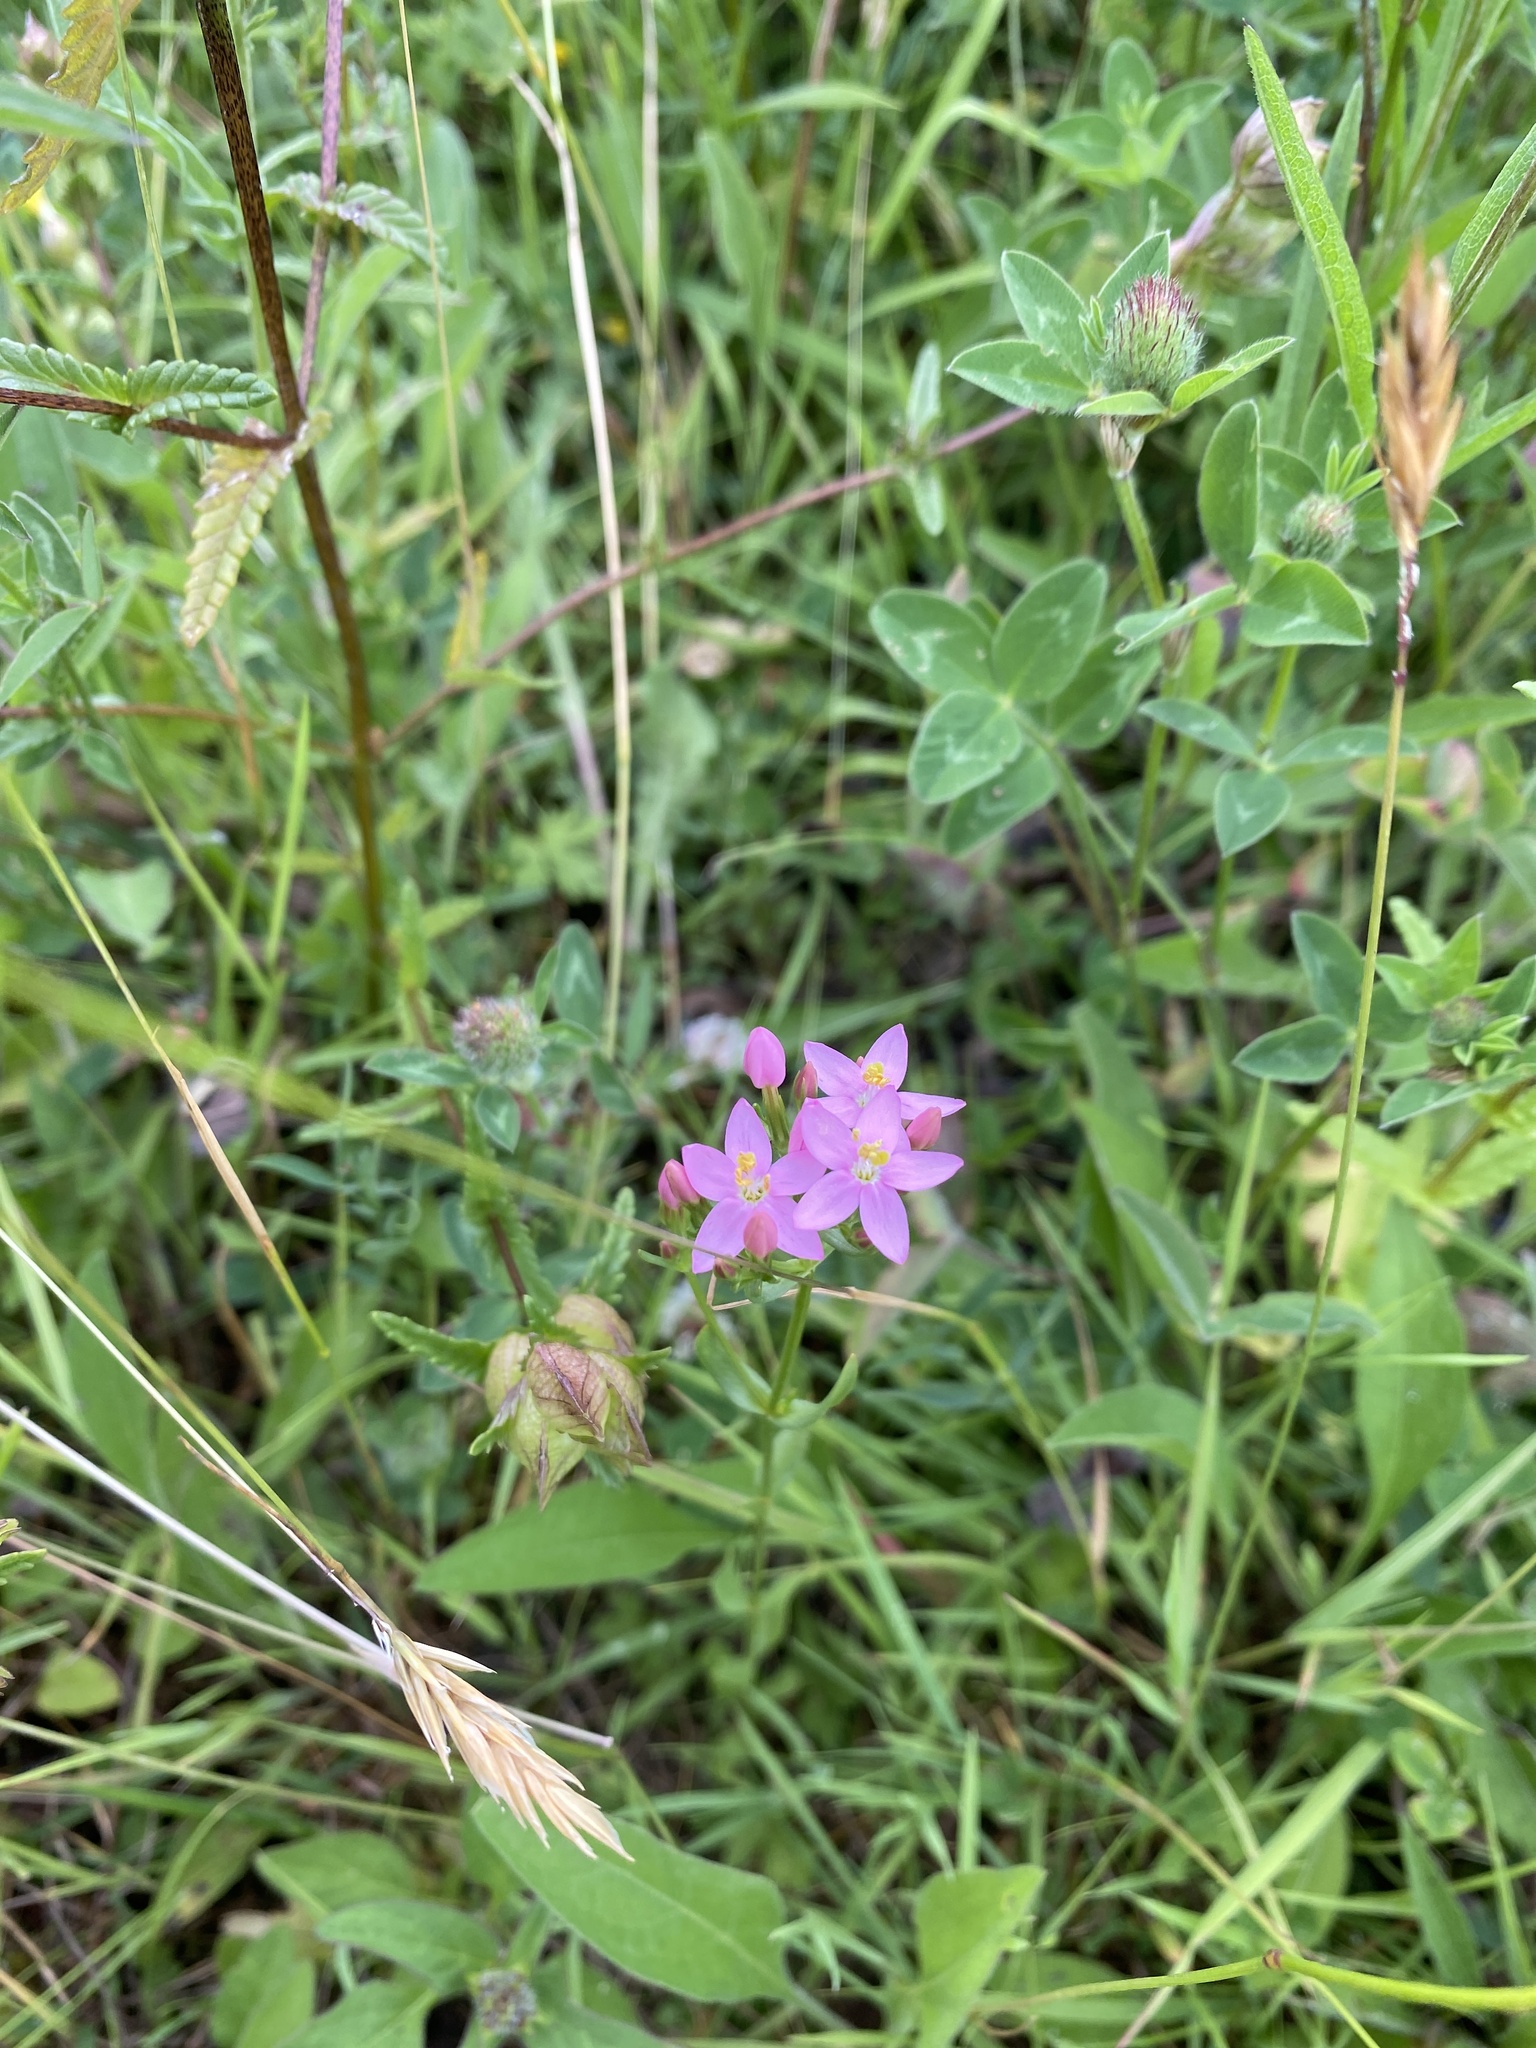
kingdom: Plantae
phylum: Tracheophyta
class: Magnoliopsida
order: Gentianales
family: Gentianaceae
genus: Centaurium
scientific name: Centaurium erythraea
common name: Common centaury
